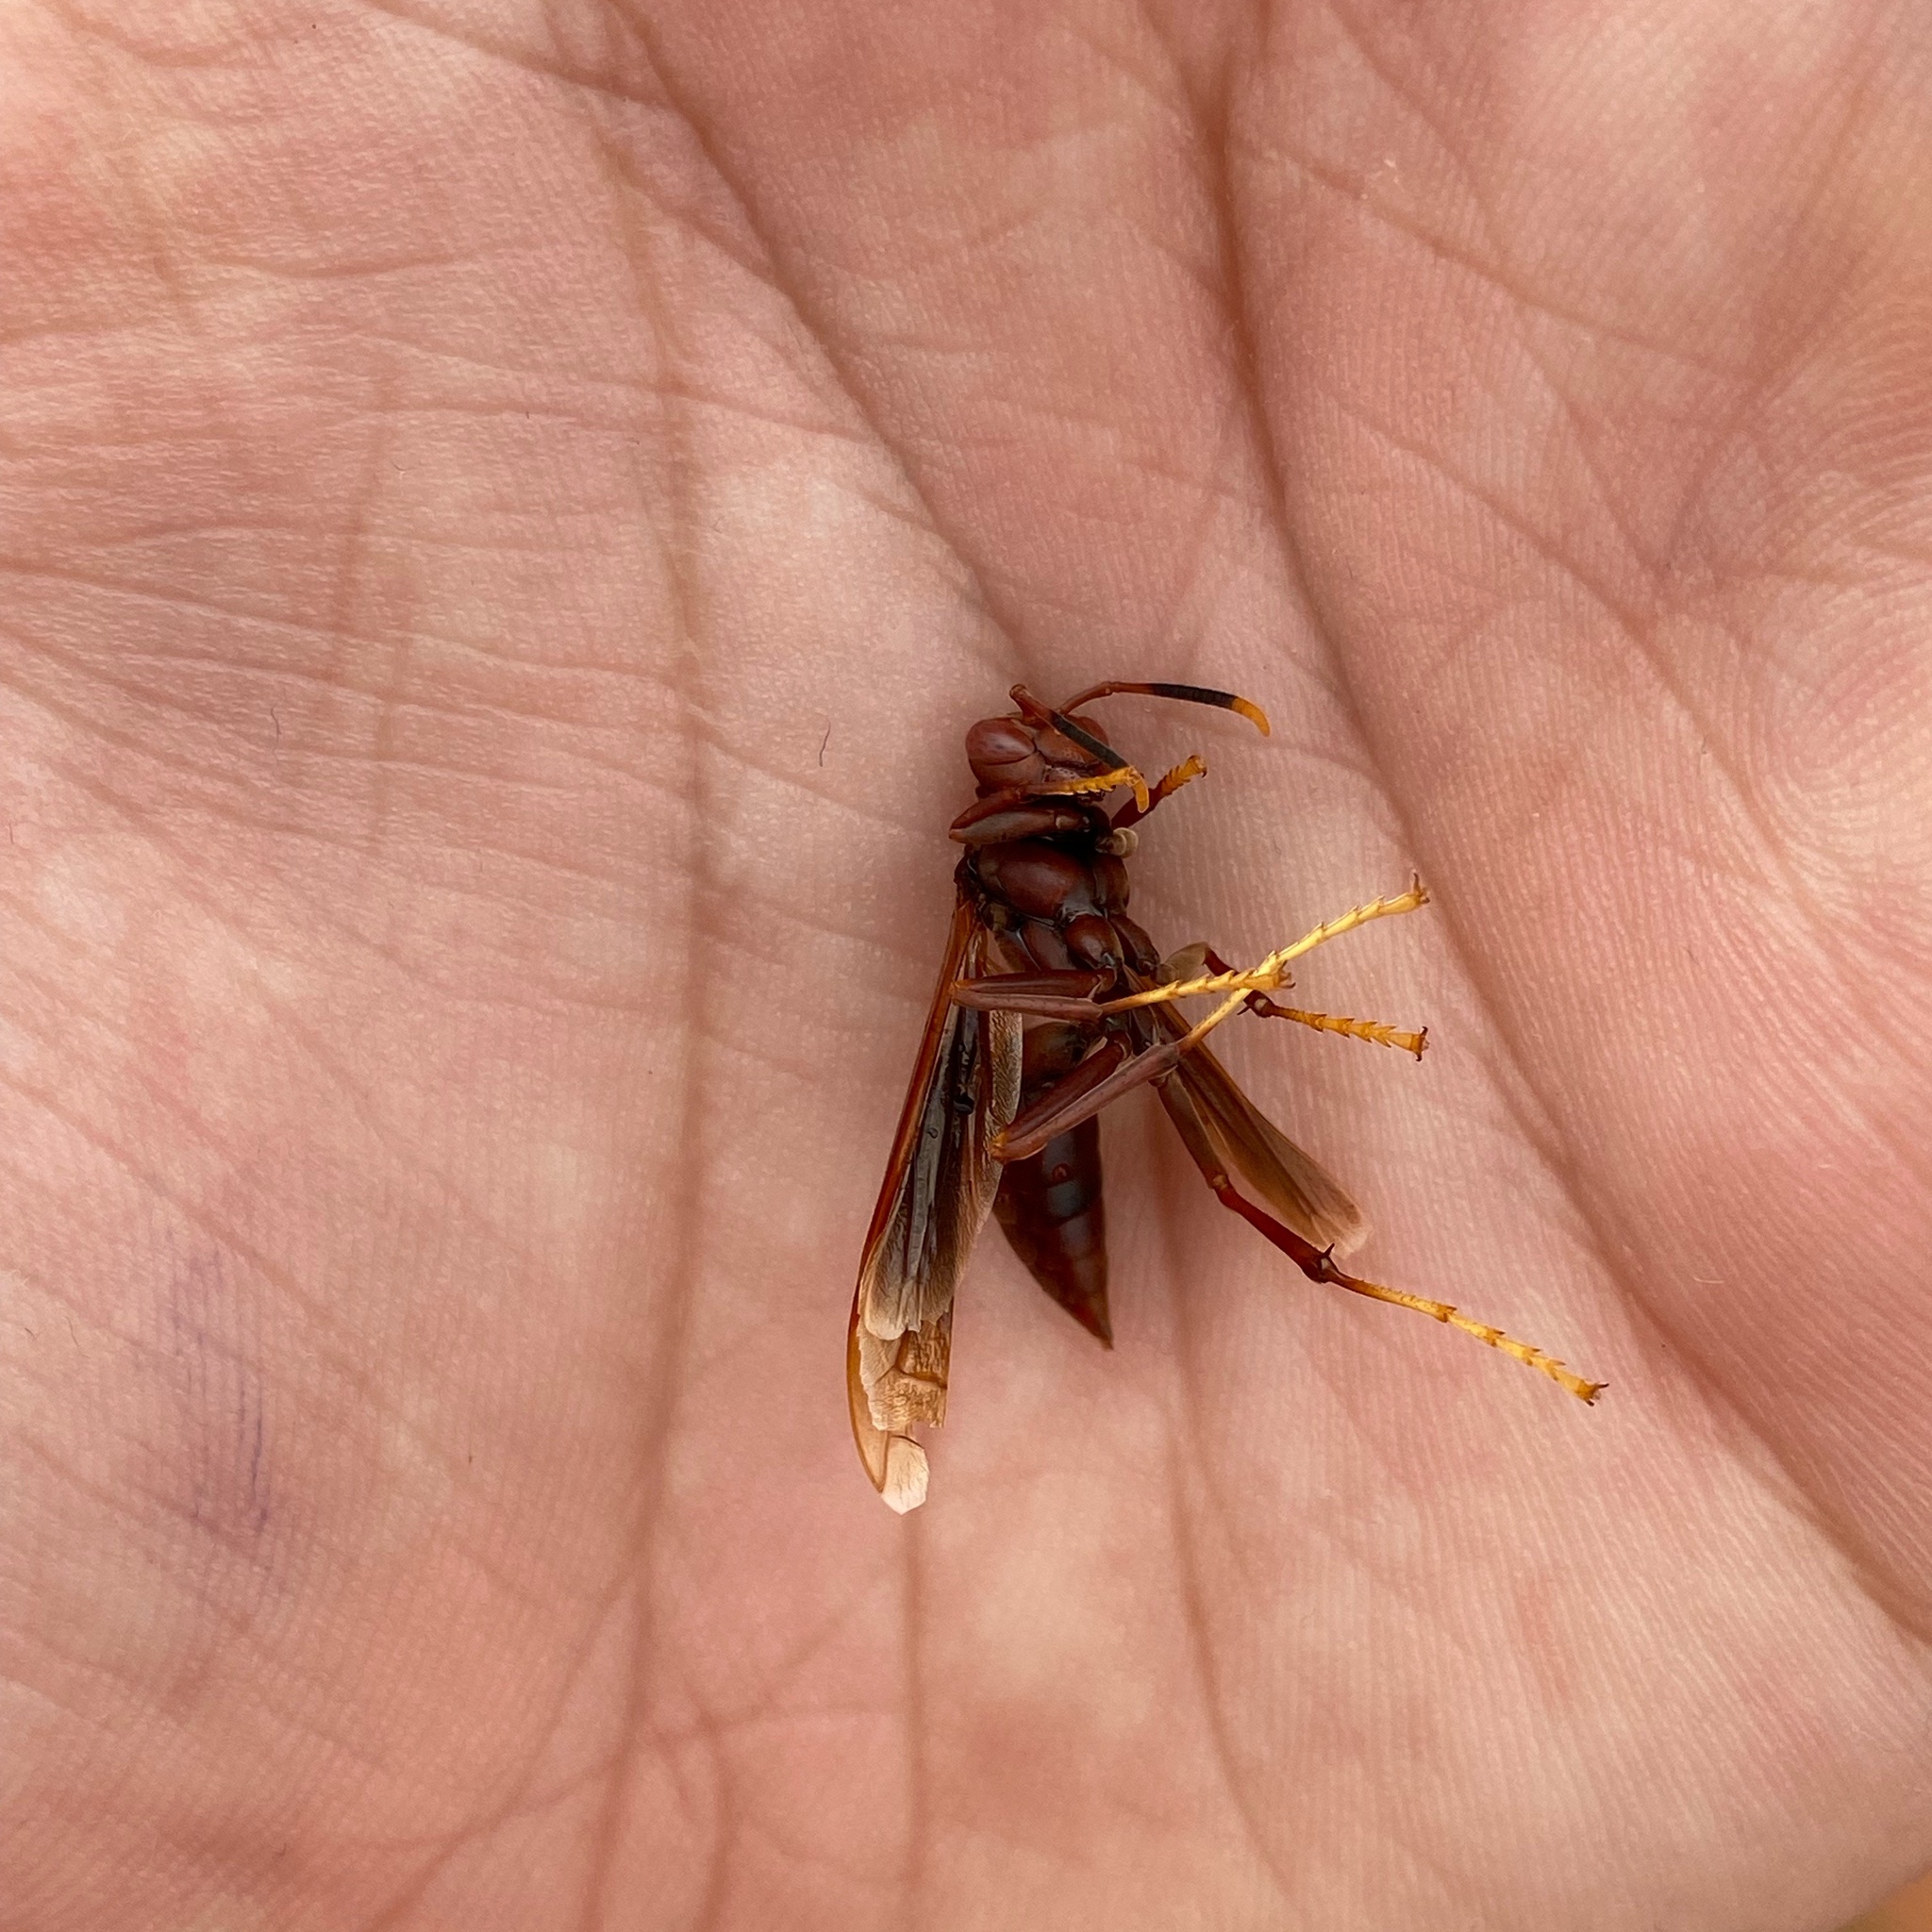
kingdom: Animalia
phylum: Arthropoda
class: Insecta
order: Hymenoptera
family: Eumenidae
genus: Polistes
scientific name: Polistes canadensis
